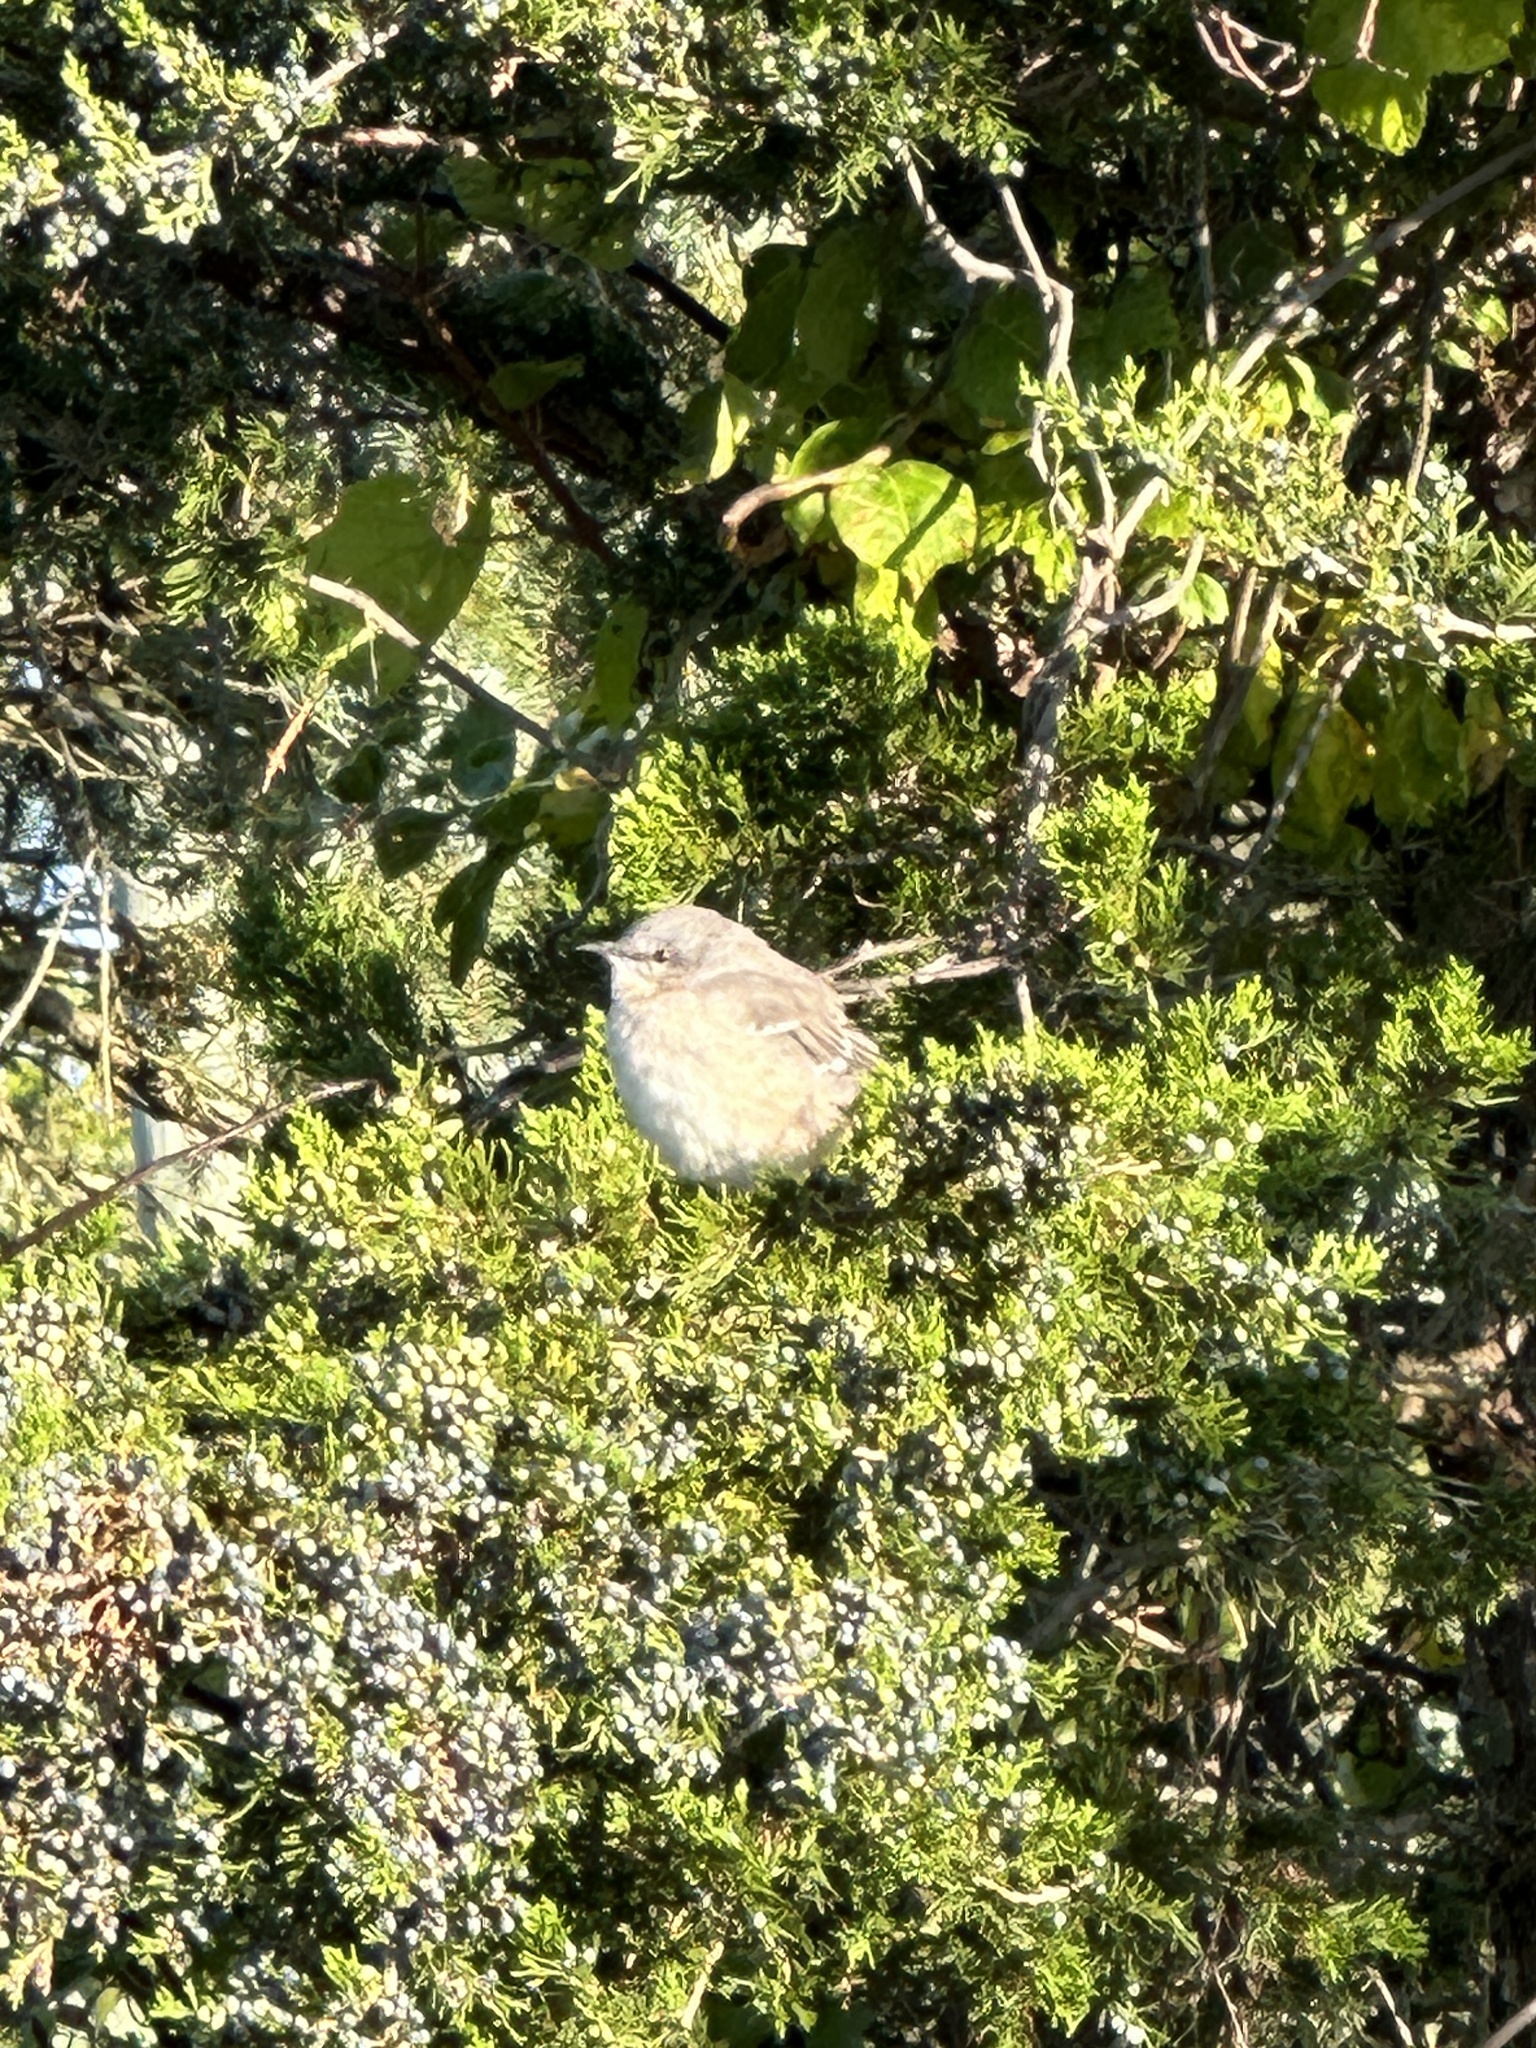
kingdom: Animalia
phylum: Chordata
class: Aves
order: Passeriformes
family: Mimidae
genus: Mimus
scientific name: Mimus polyglottos
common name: Northern mockingbird
